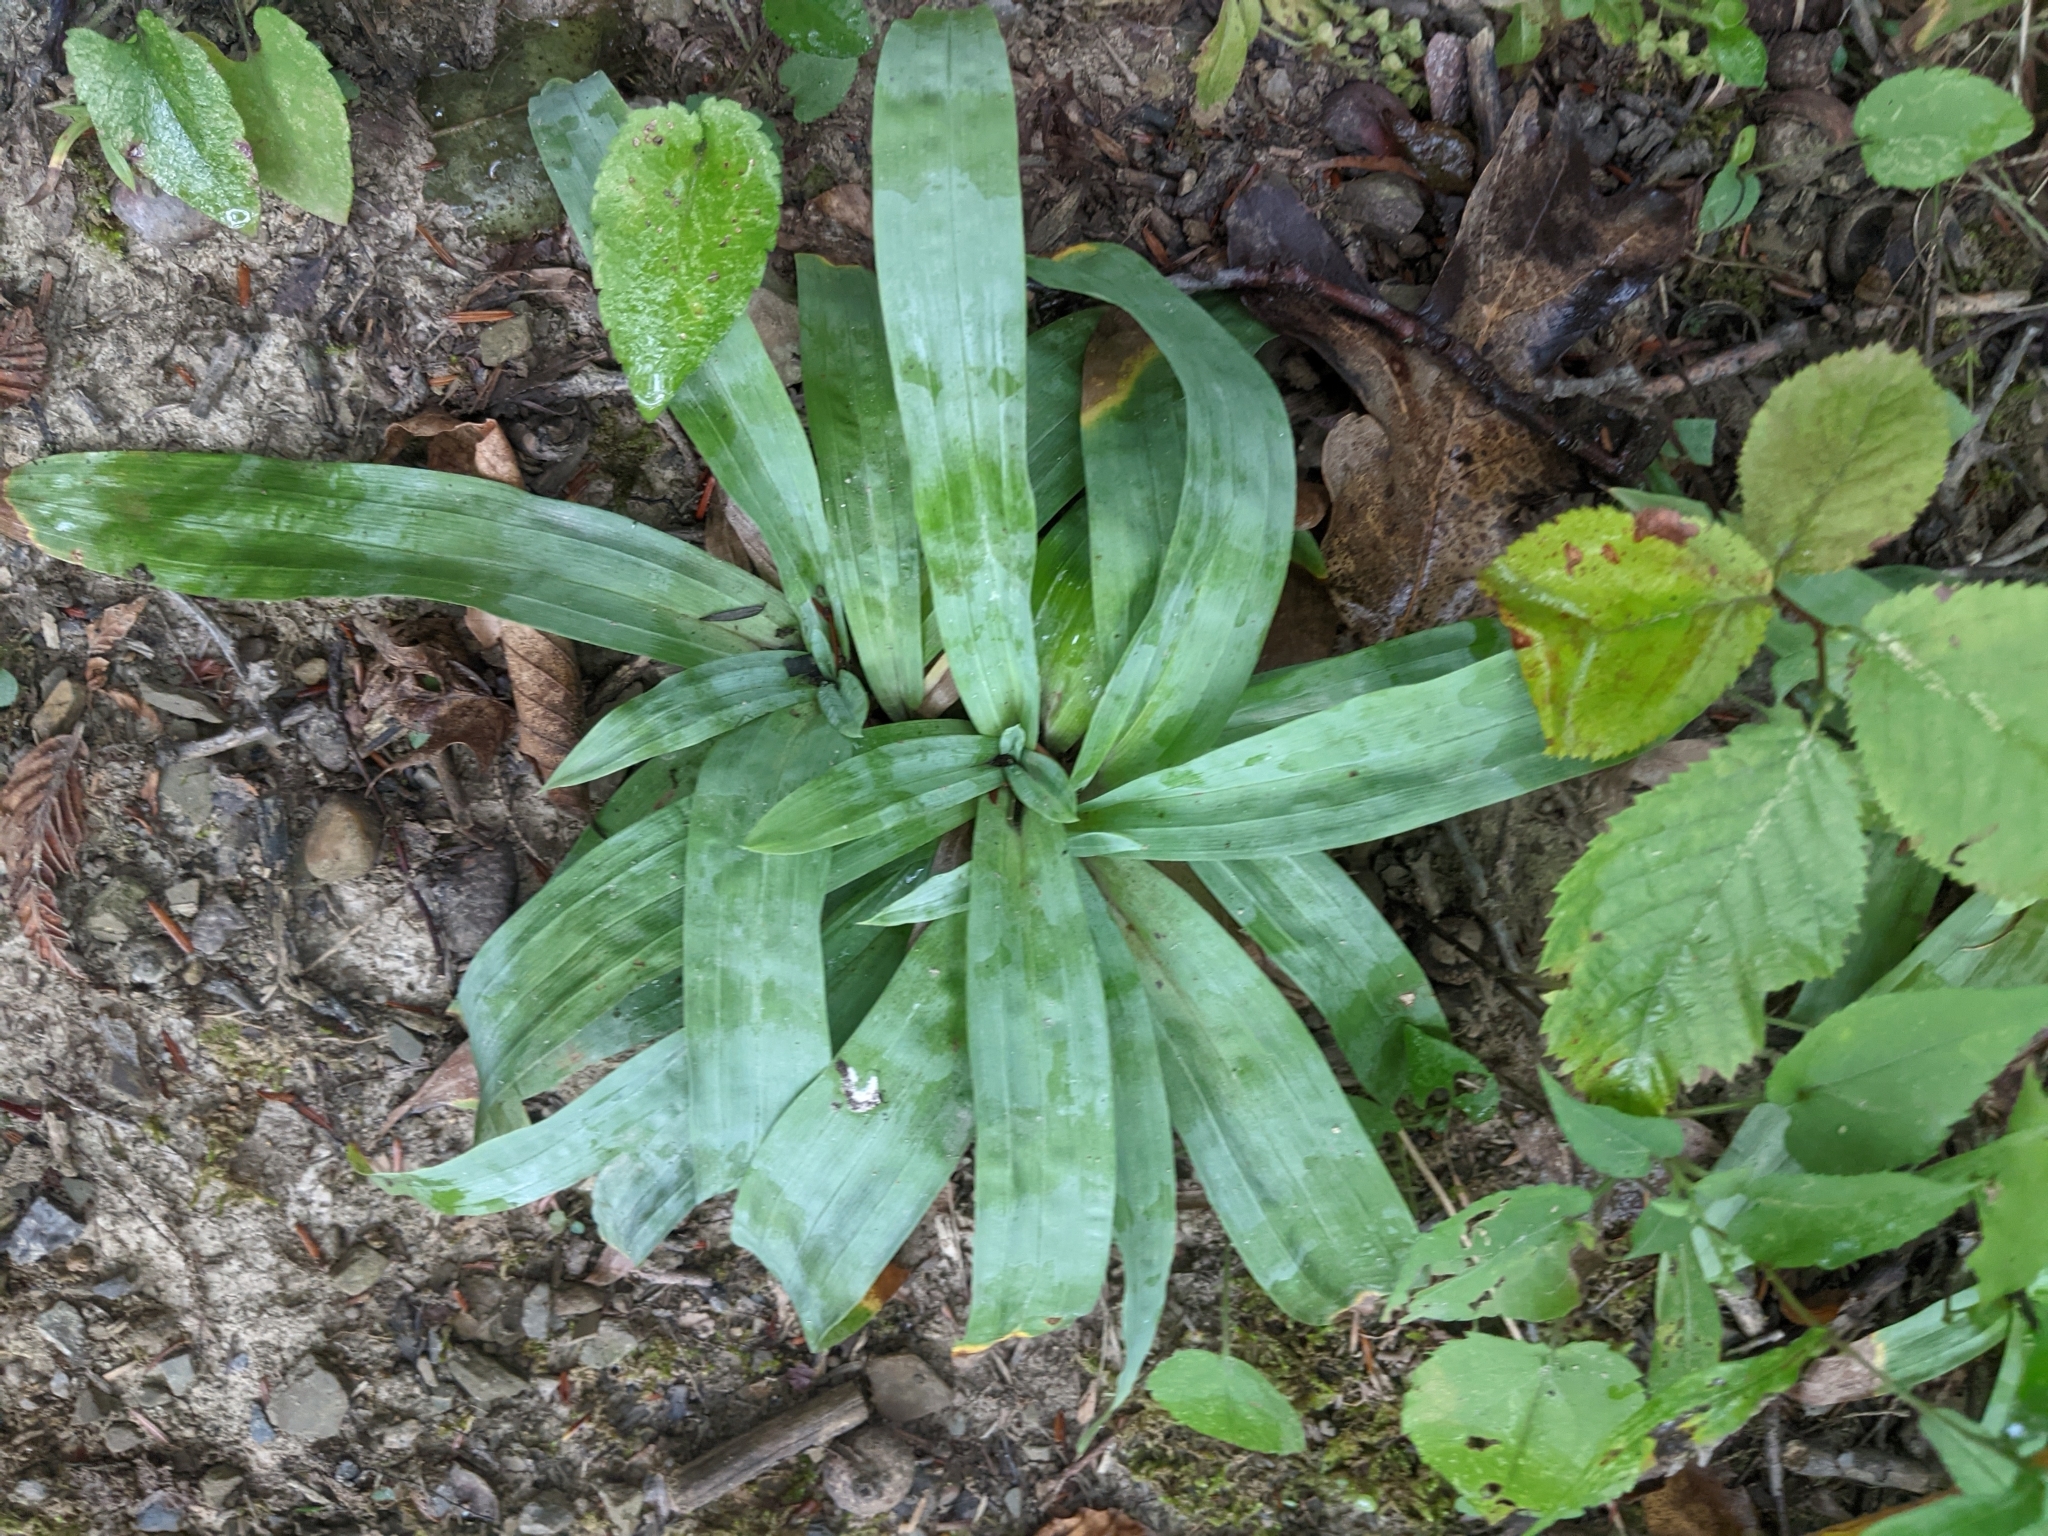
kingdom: Plantae
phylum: Tracheophyta
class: Liliopsida
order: Poales
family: Cyperaceae
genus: Carex
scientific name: Carex platyphylla
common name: Broad-leaved sedge
